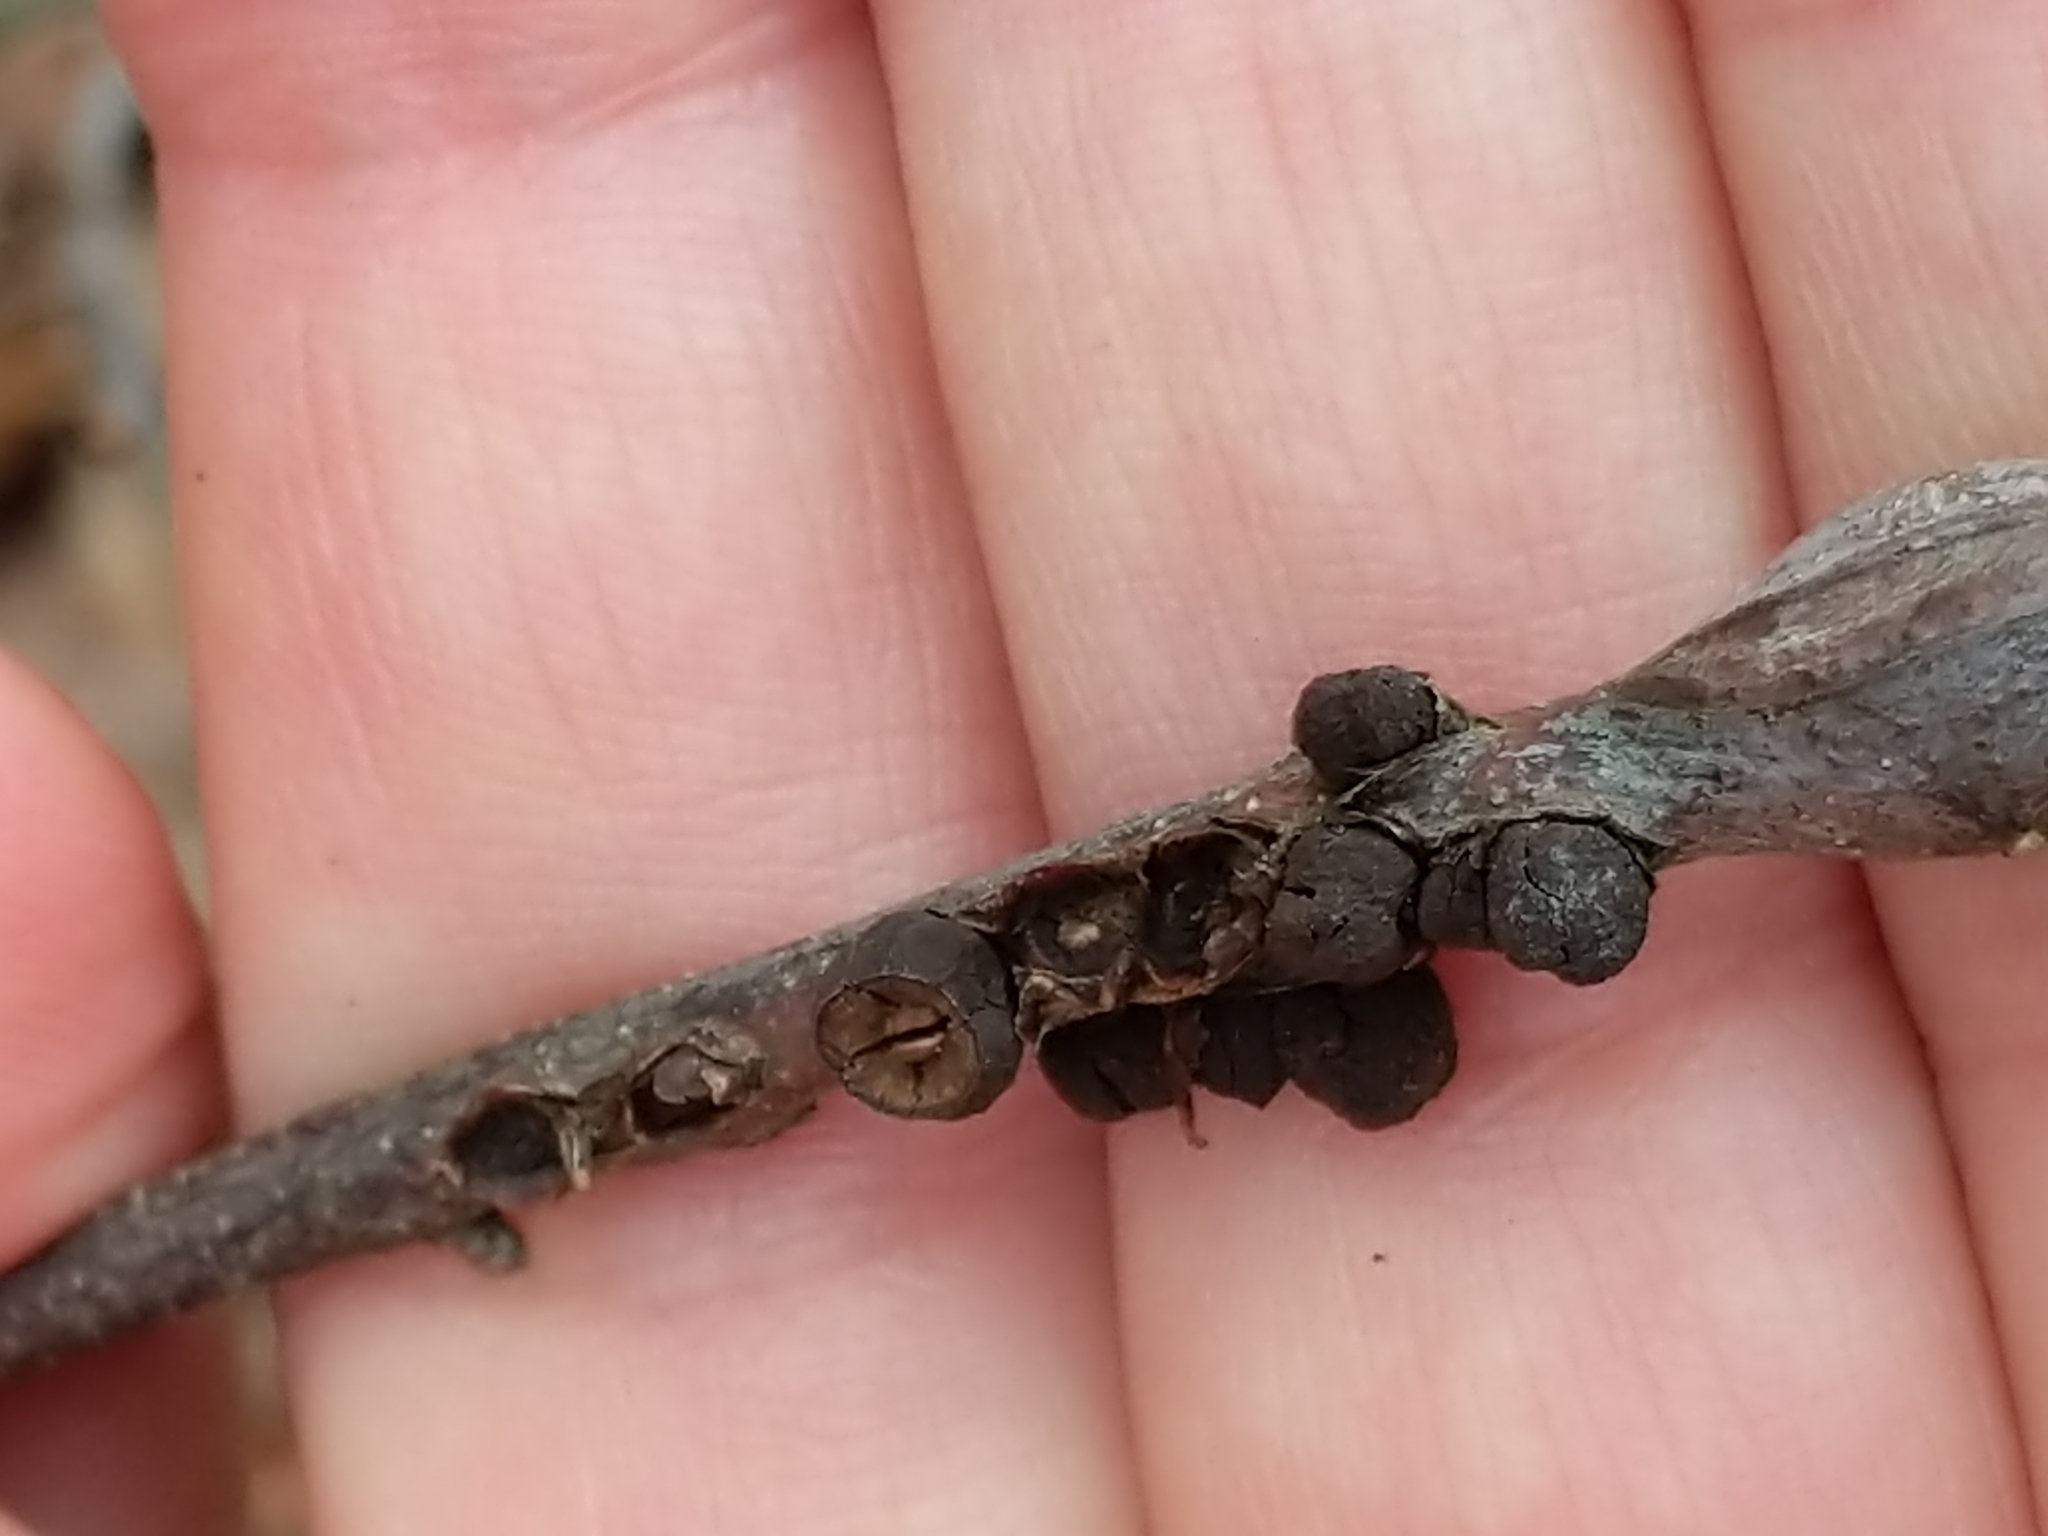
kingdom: Animalia
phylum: Arthropoda
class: Insecta
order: Hymenoptera
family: Cynipidae
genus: Zapatella
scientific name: Zapatella quercusphellos
